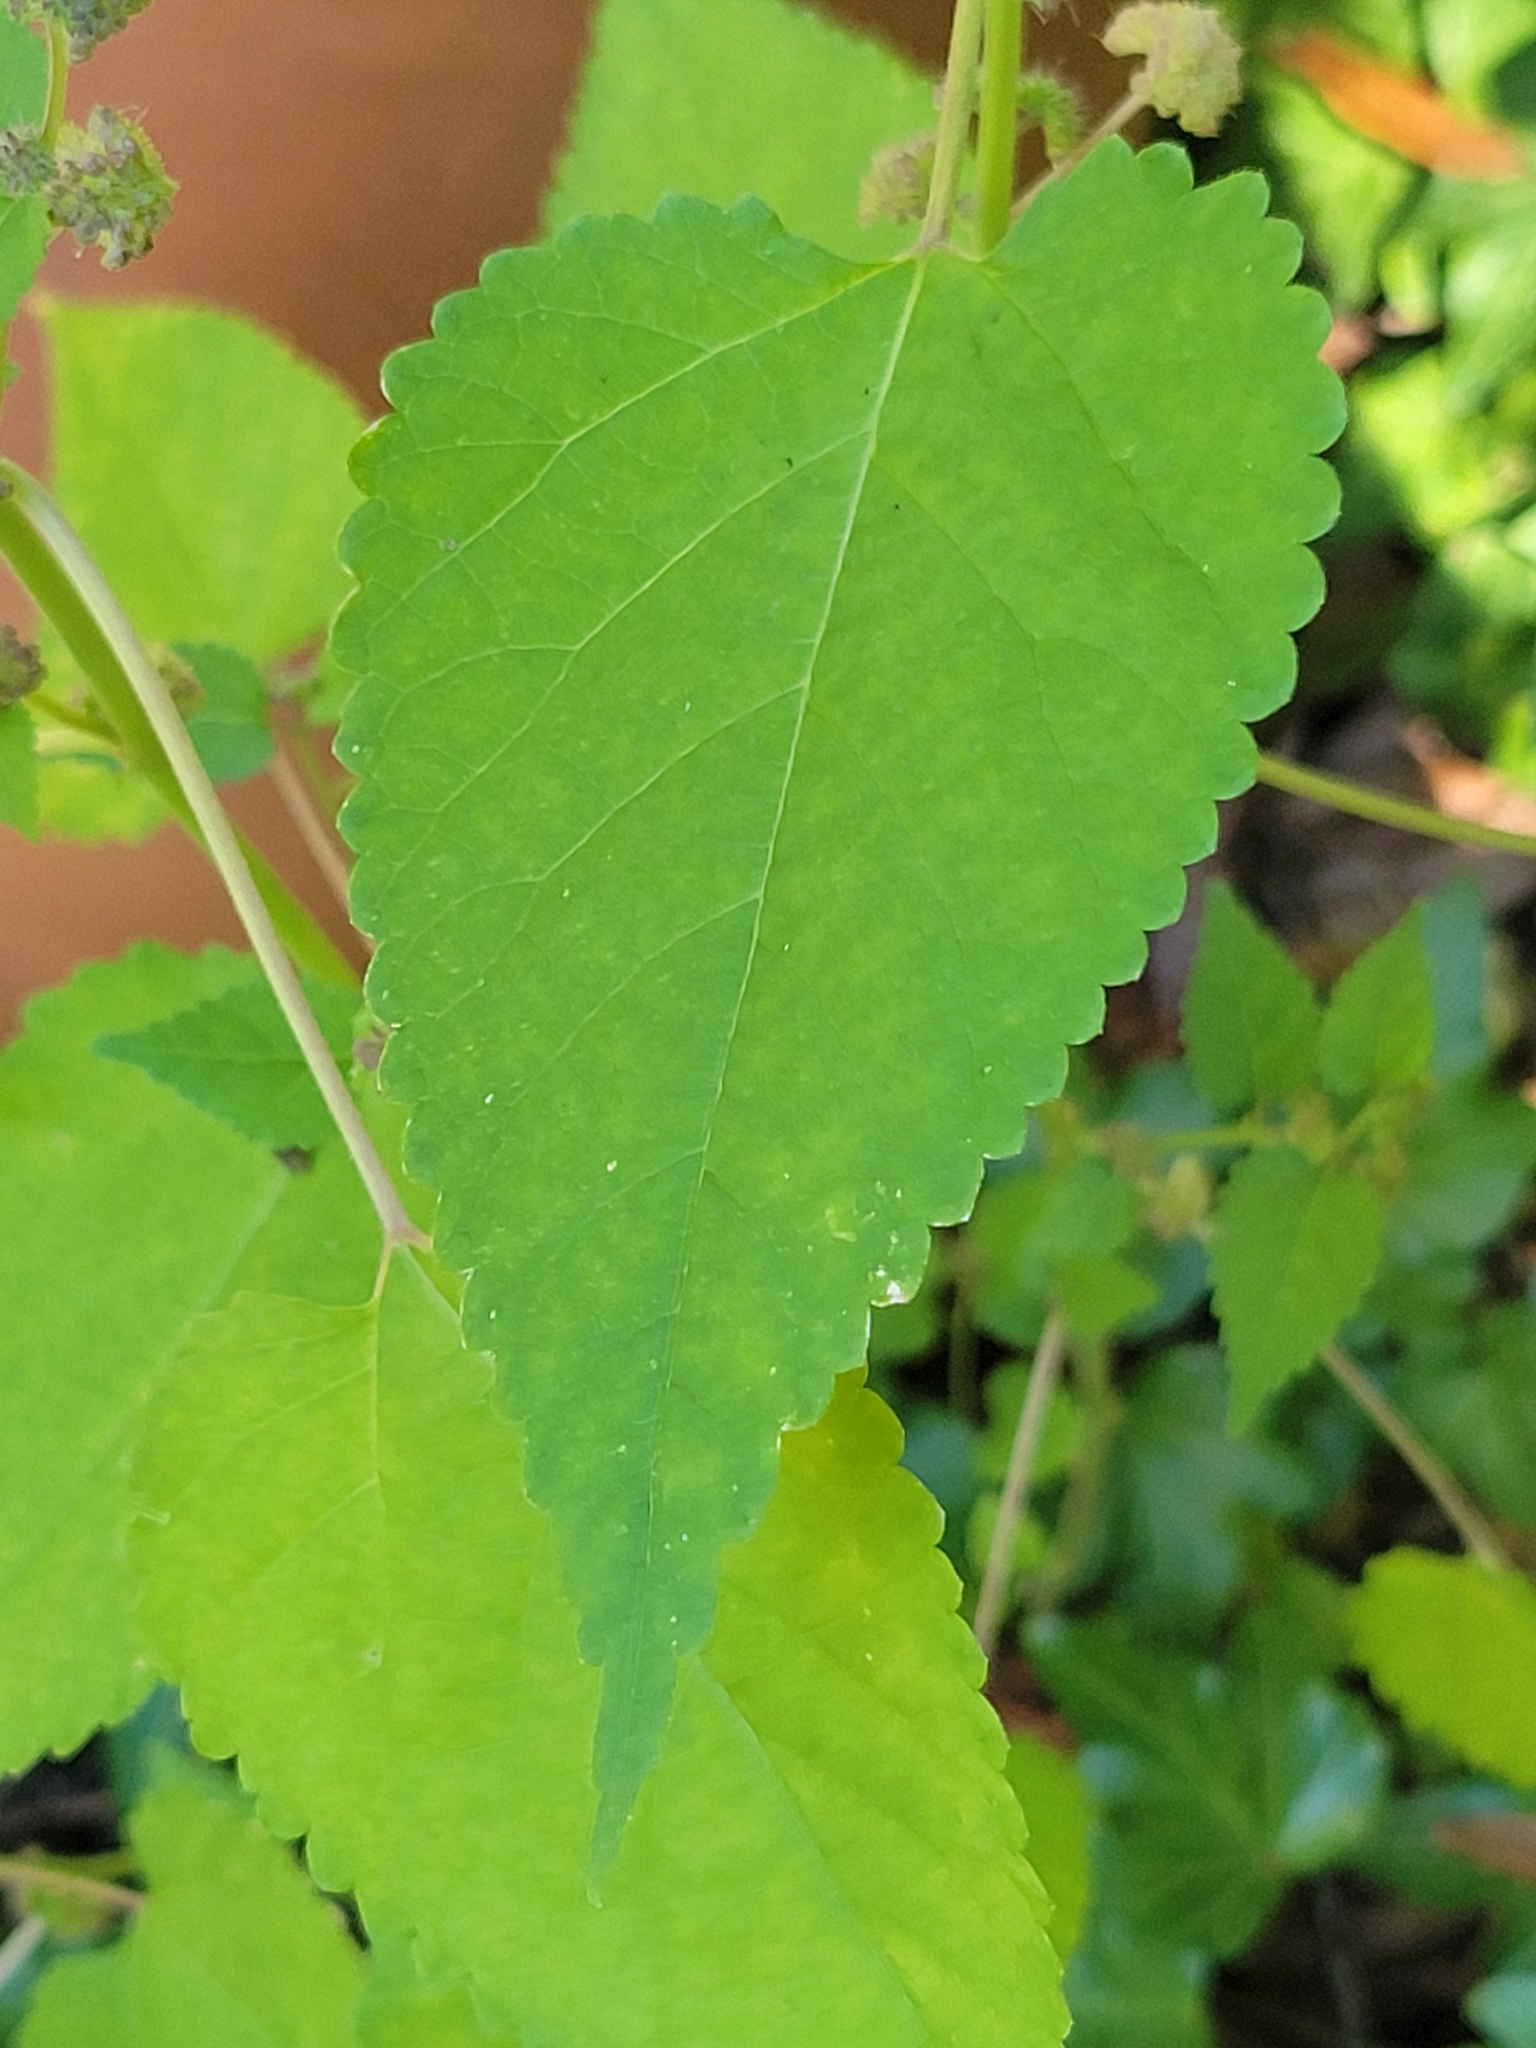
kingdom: Plantae
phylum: Tracheophyta
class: Magnoliopsida
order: Rosales
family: Moraceae
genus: Fatoua
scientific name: Fatoua villosa
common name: Hairy crabweed
